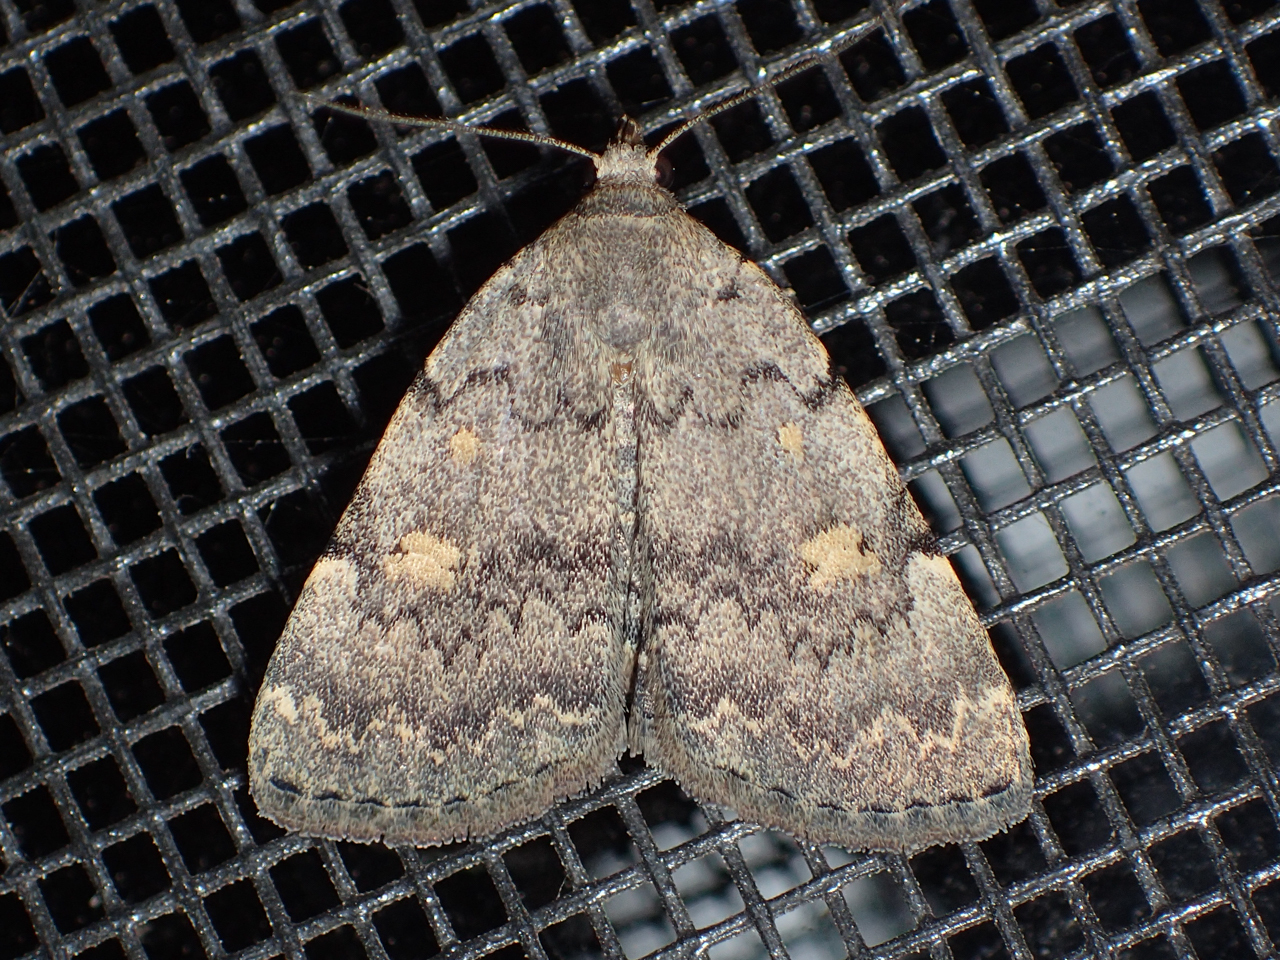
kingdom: Animalia
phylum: Arthropoda
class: Insecta
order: Lepidoptera
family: Erebidae
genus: Idia
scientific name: Idia aemula
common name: Common idia moth
